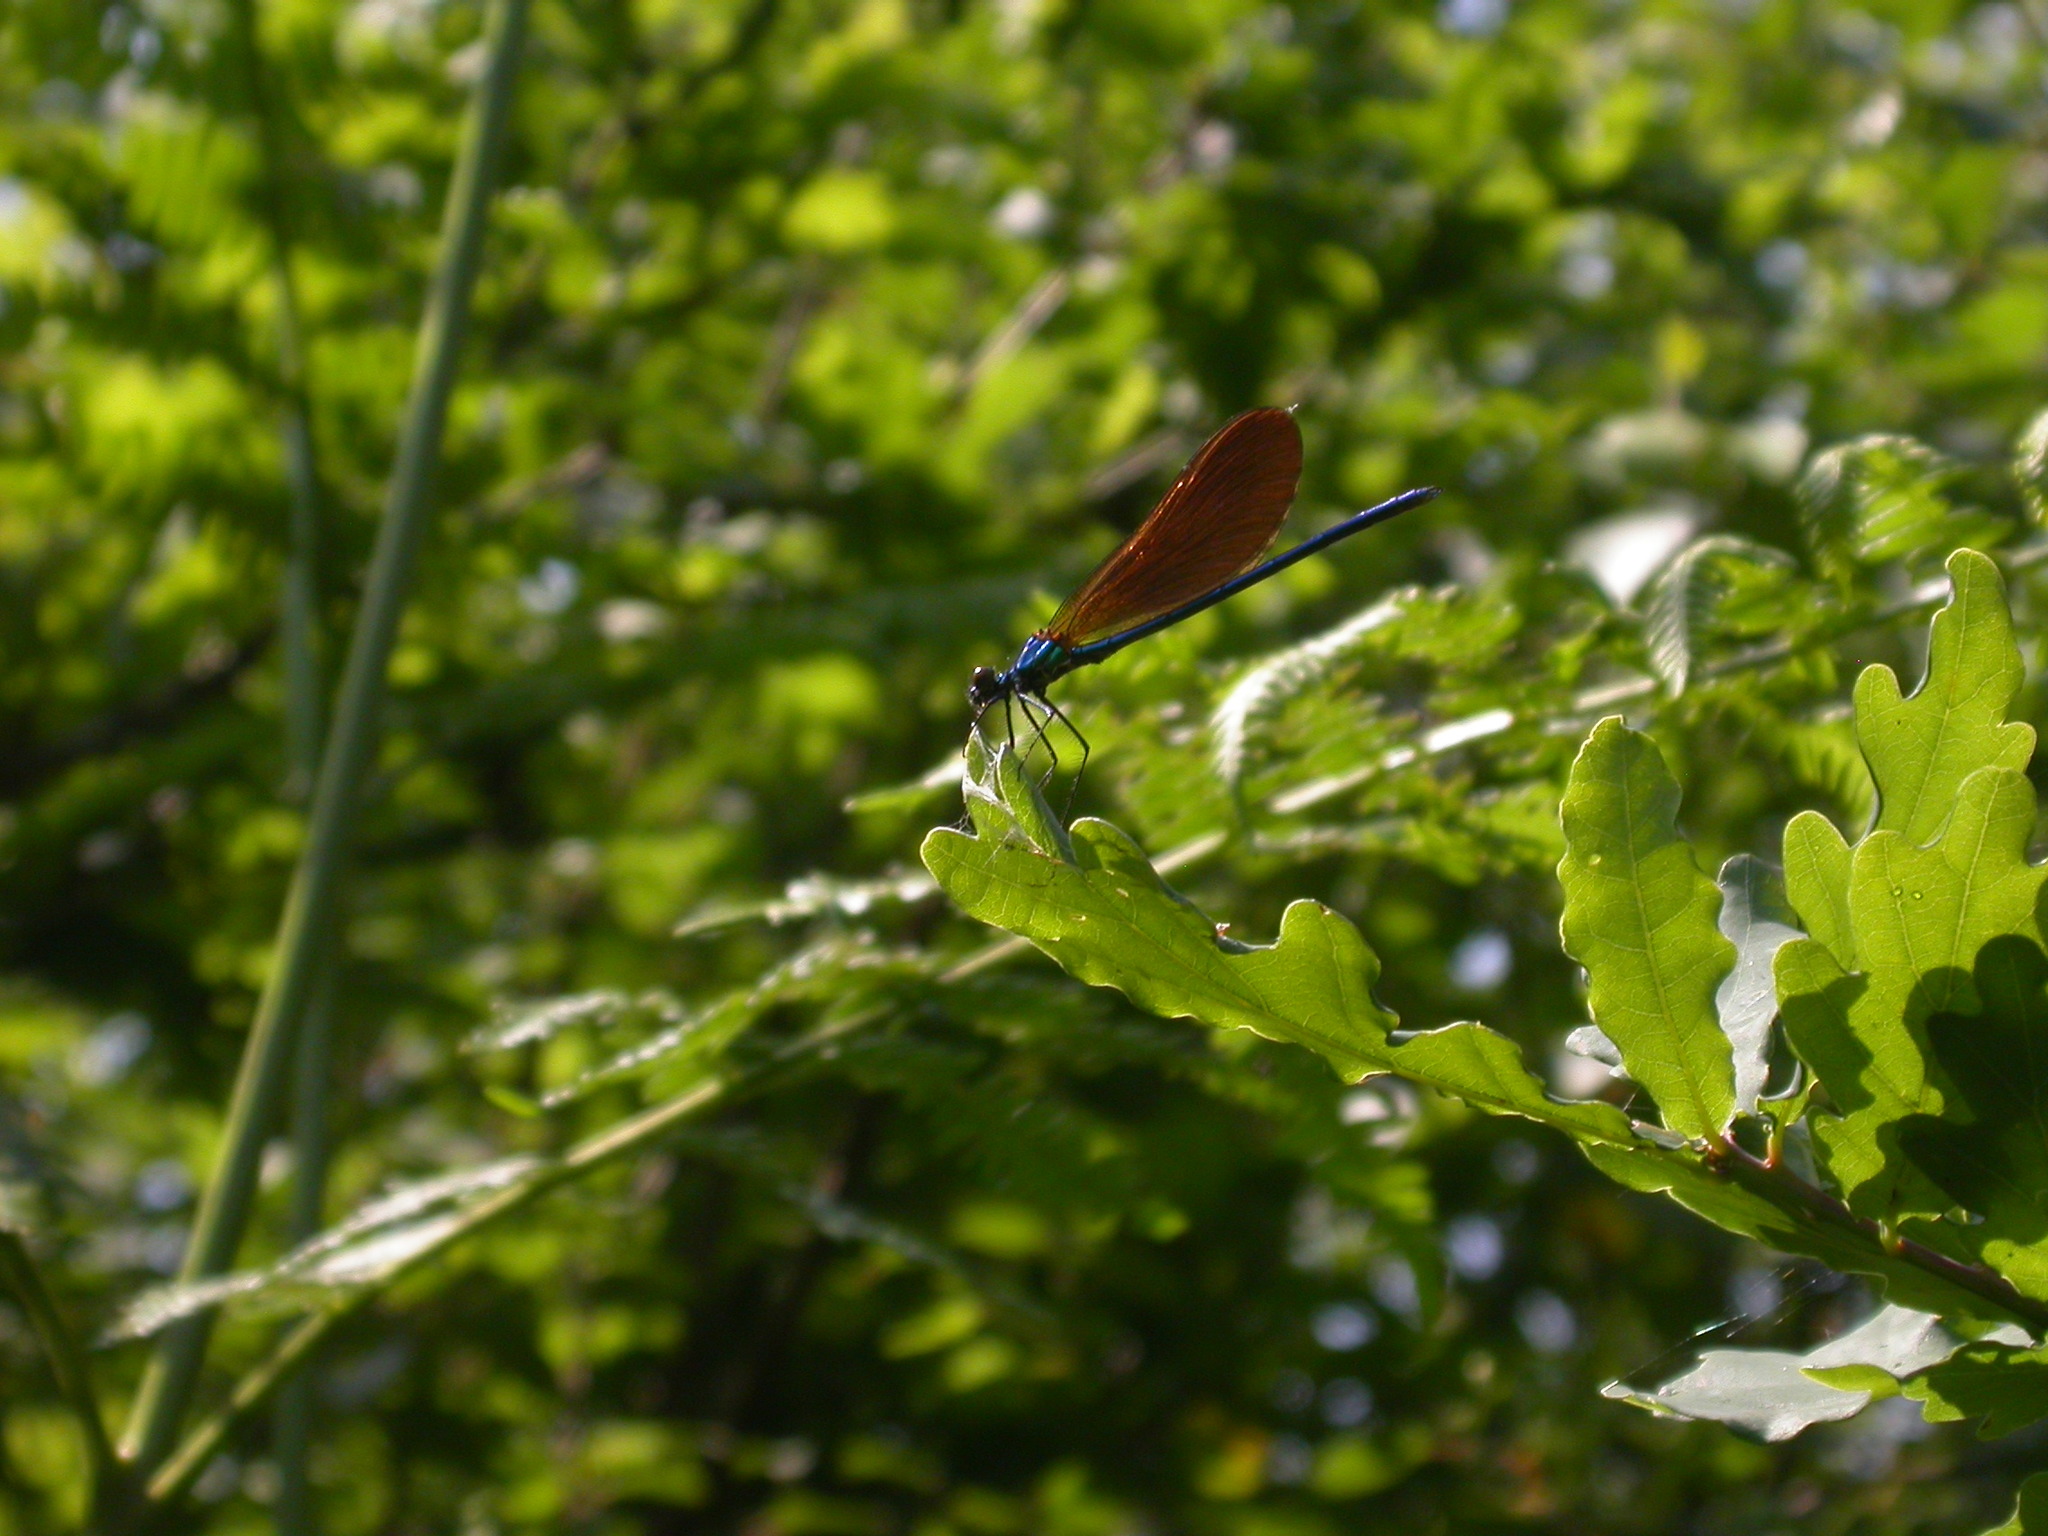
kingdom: Animalia
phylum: Arthropoda
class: Insecta
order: Odonata
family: Calopterygidae
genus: Calopteryx
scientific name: Calopteryx virgo
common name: Beautiful demoiselle
